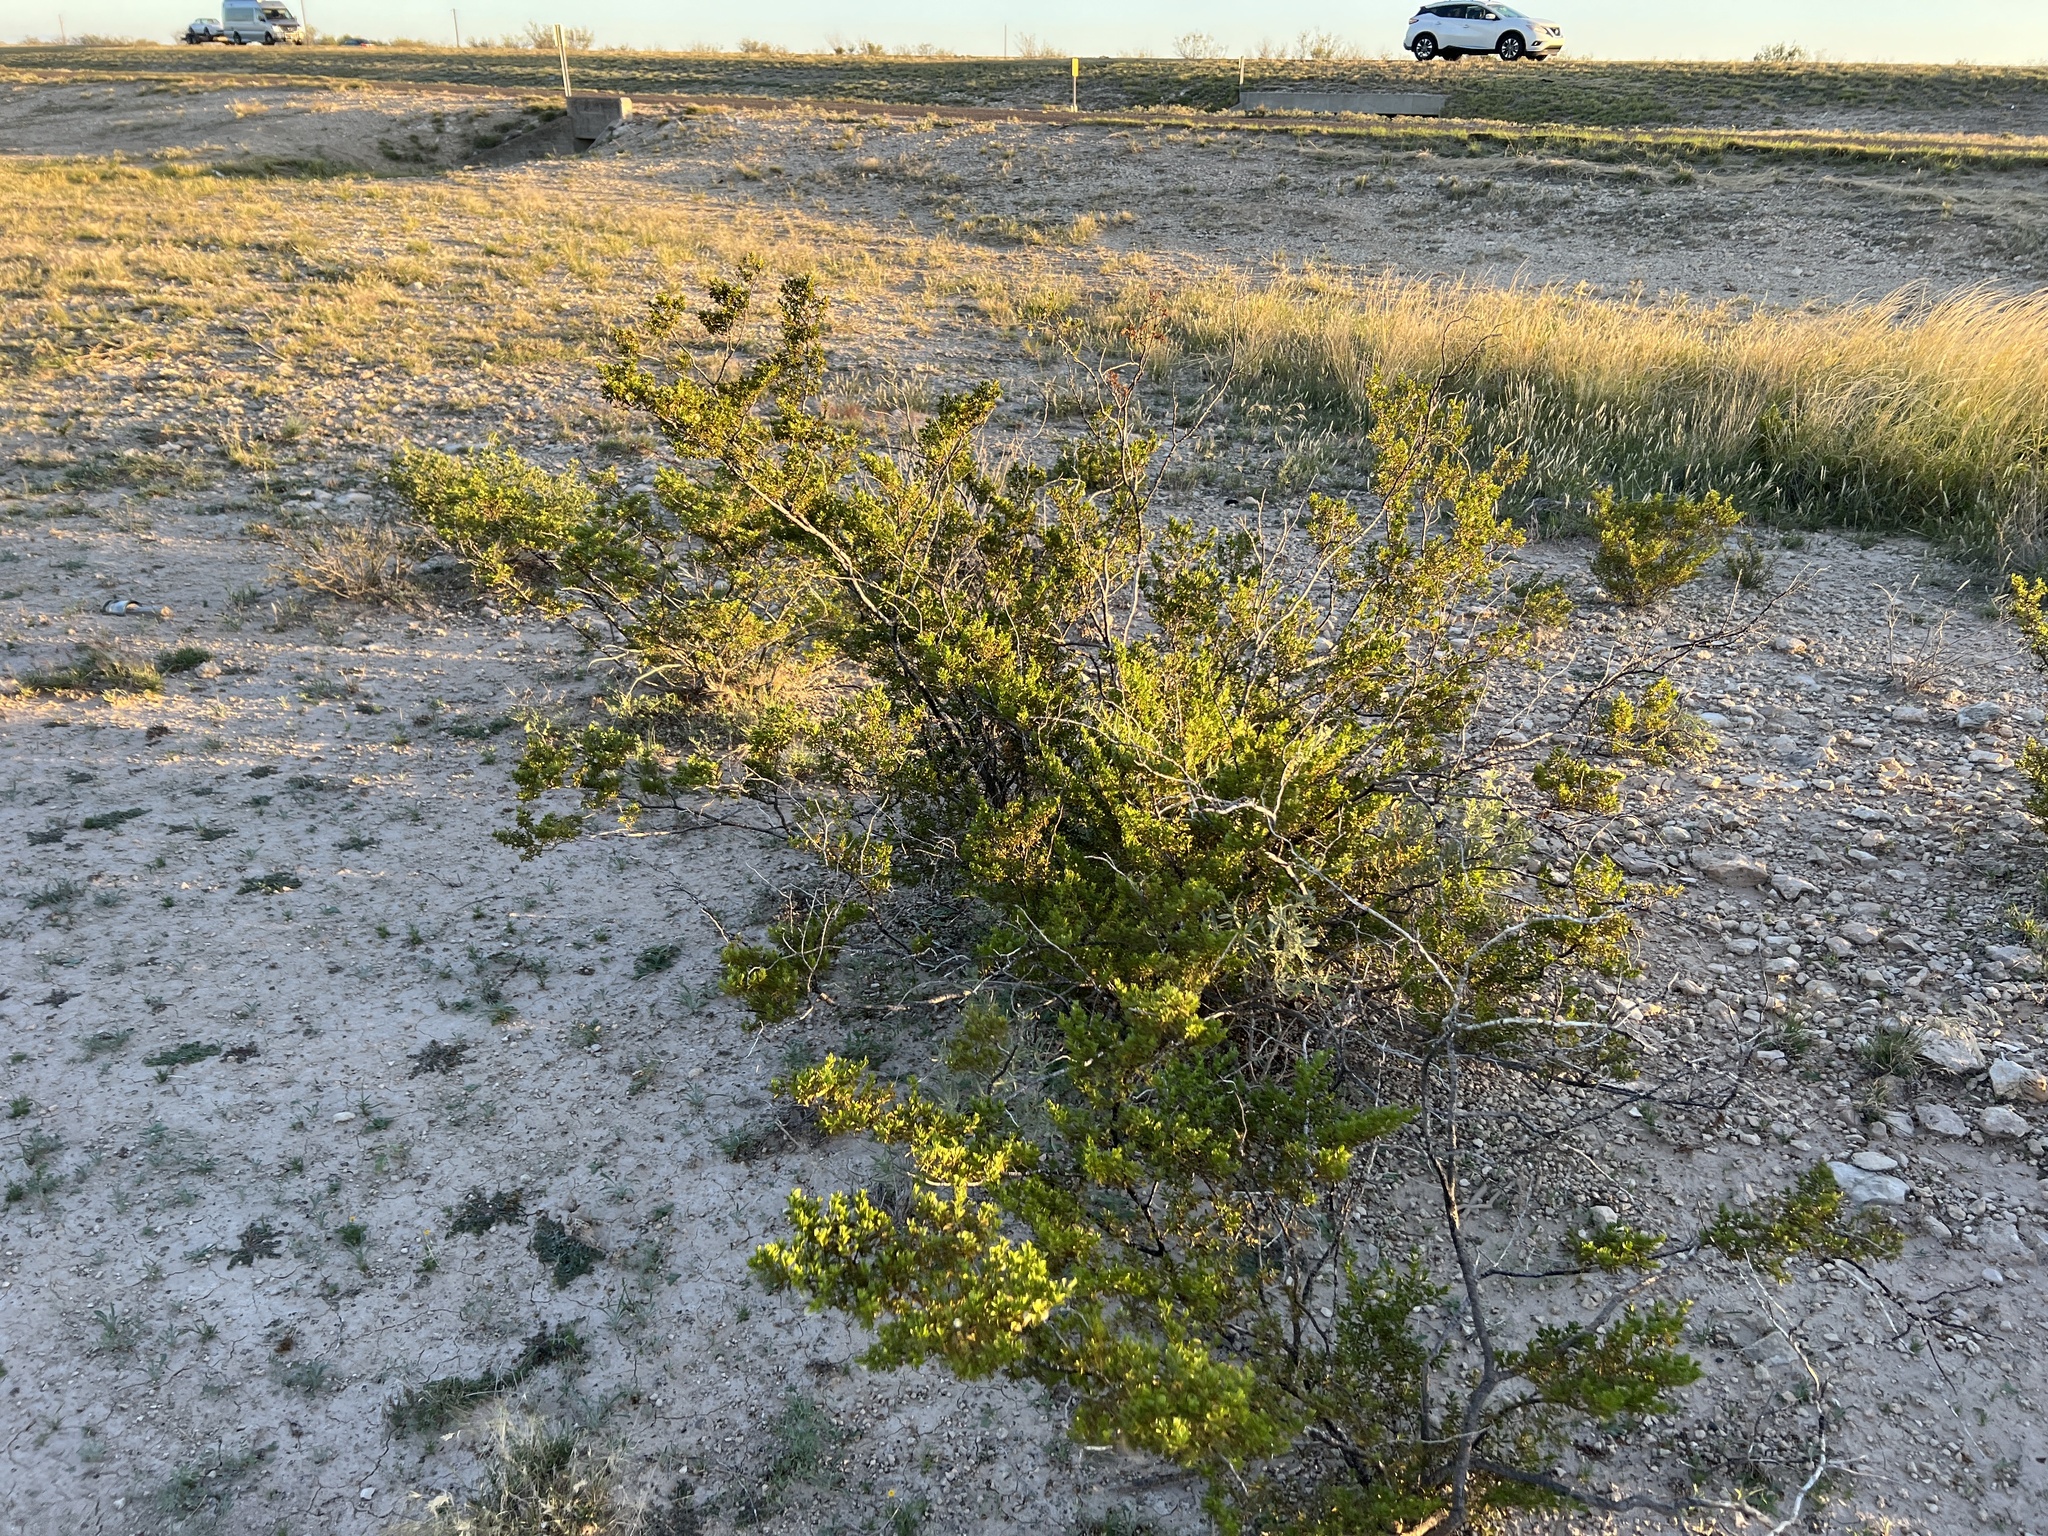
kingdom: Plantae
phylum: Tracheophyta
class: Magnoliopsida
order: Zygophyllales
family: Zygophyllaceae
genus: Larrea
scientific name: Larrea tridentata
